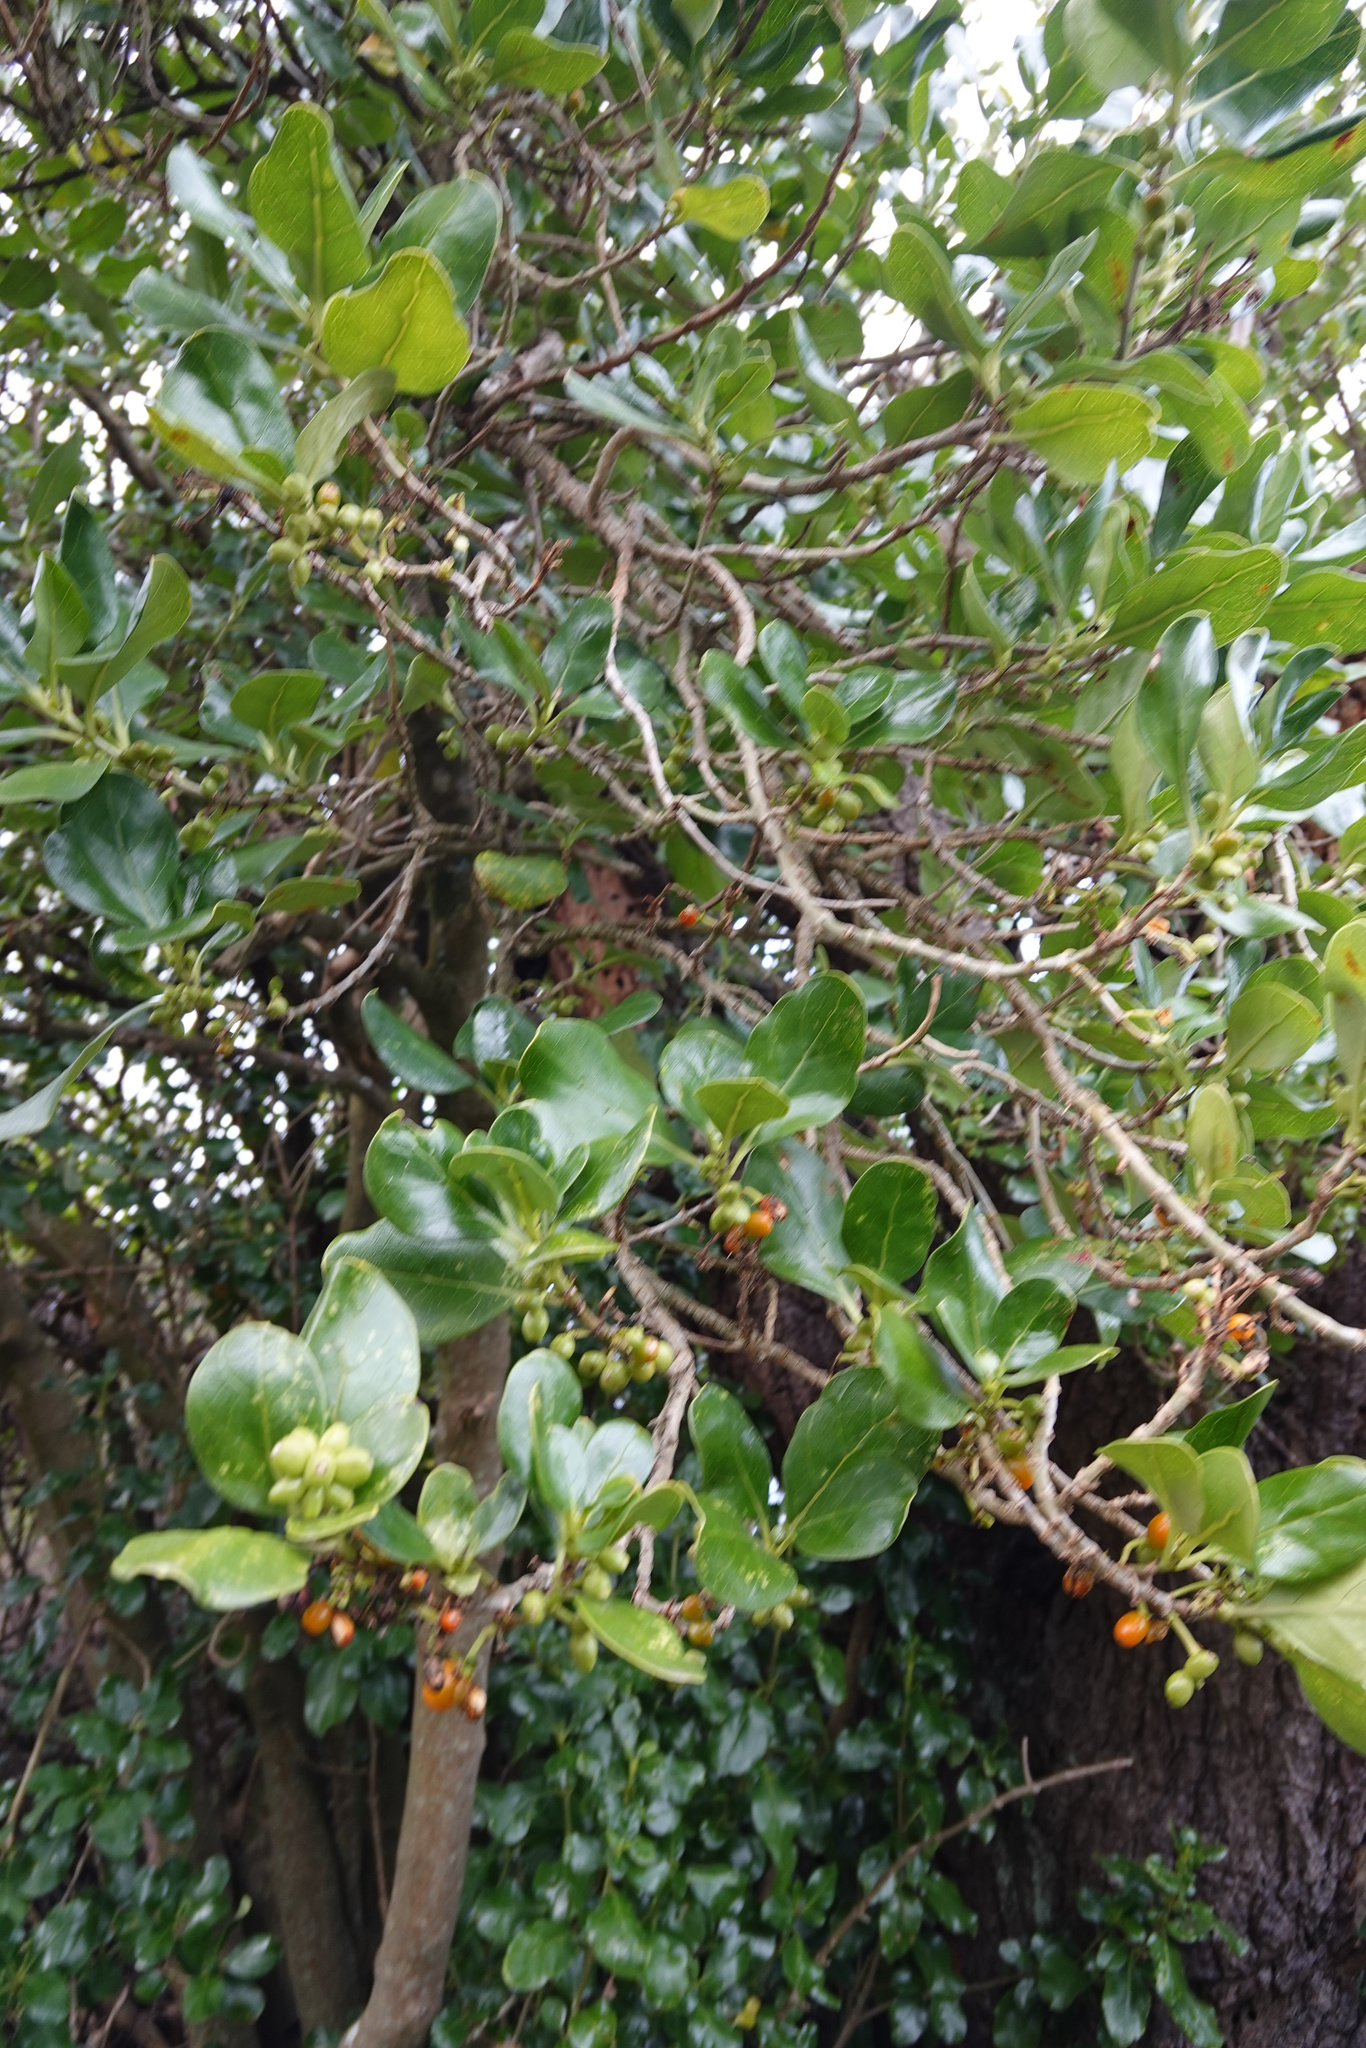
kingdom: Plantae
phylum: Tracheophyta
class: Magnoliopsida
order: Gentianales
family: Rubiaceae
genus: Coprosma
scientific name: Coprosma repens
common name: Tree bedstraw
